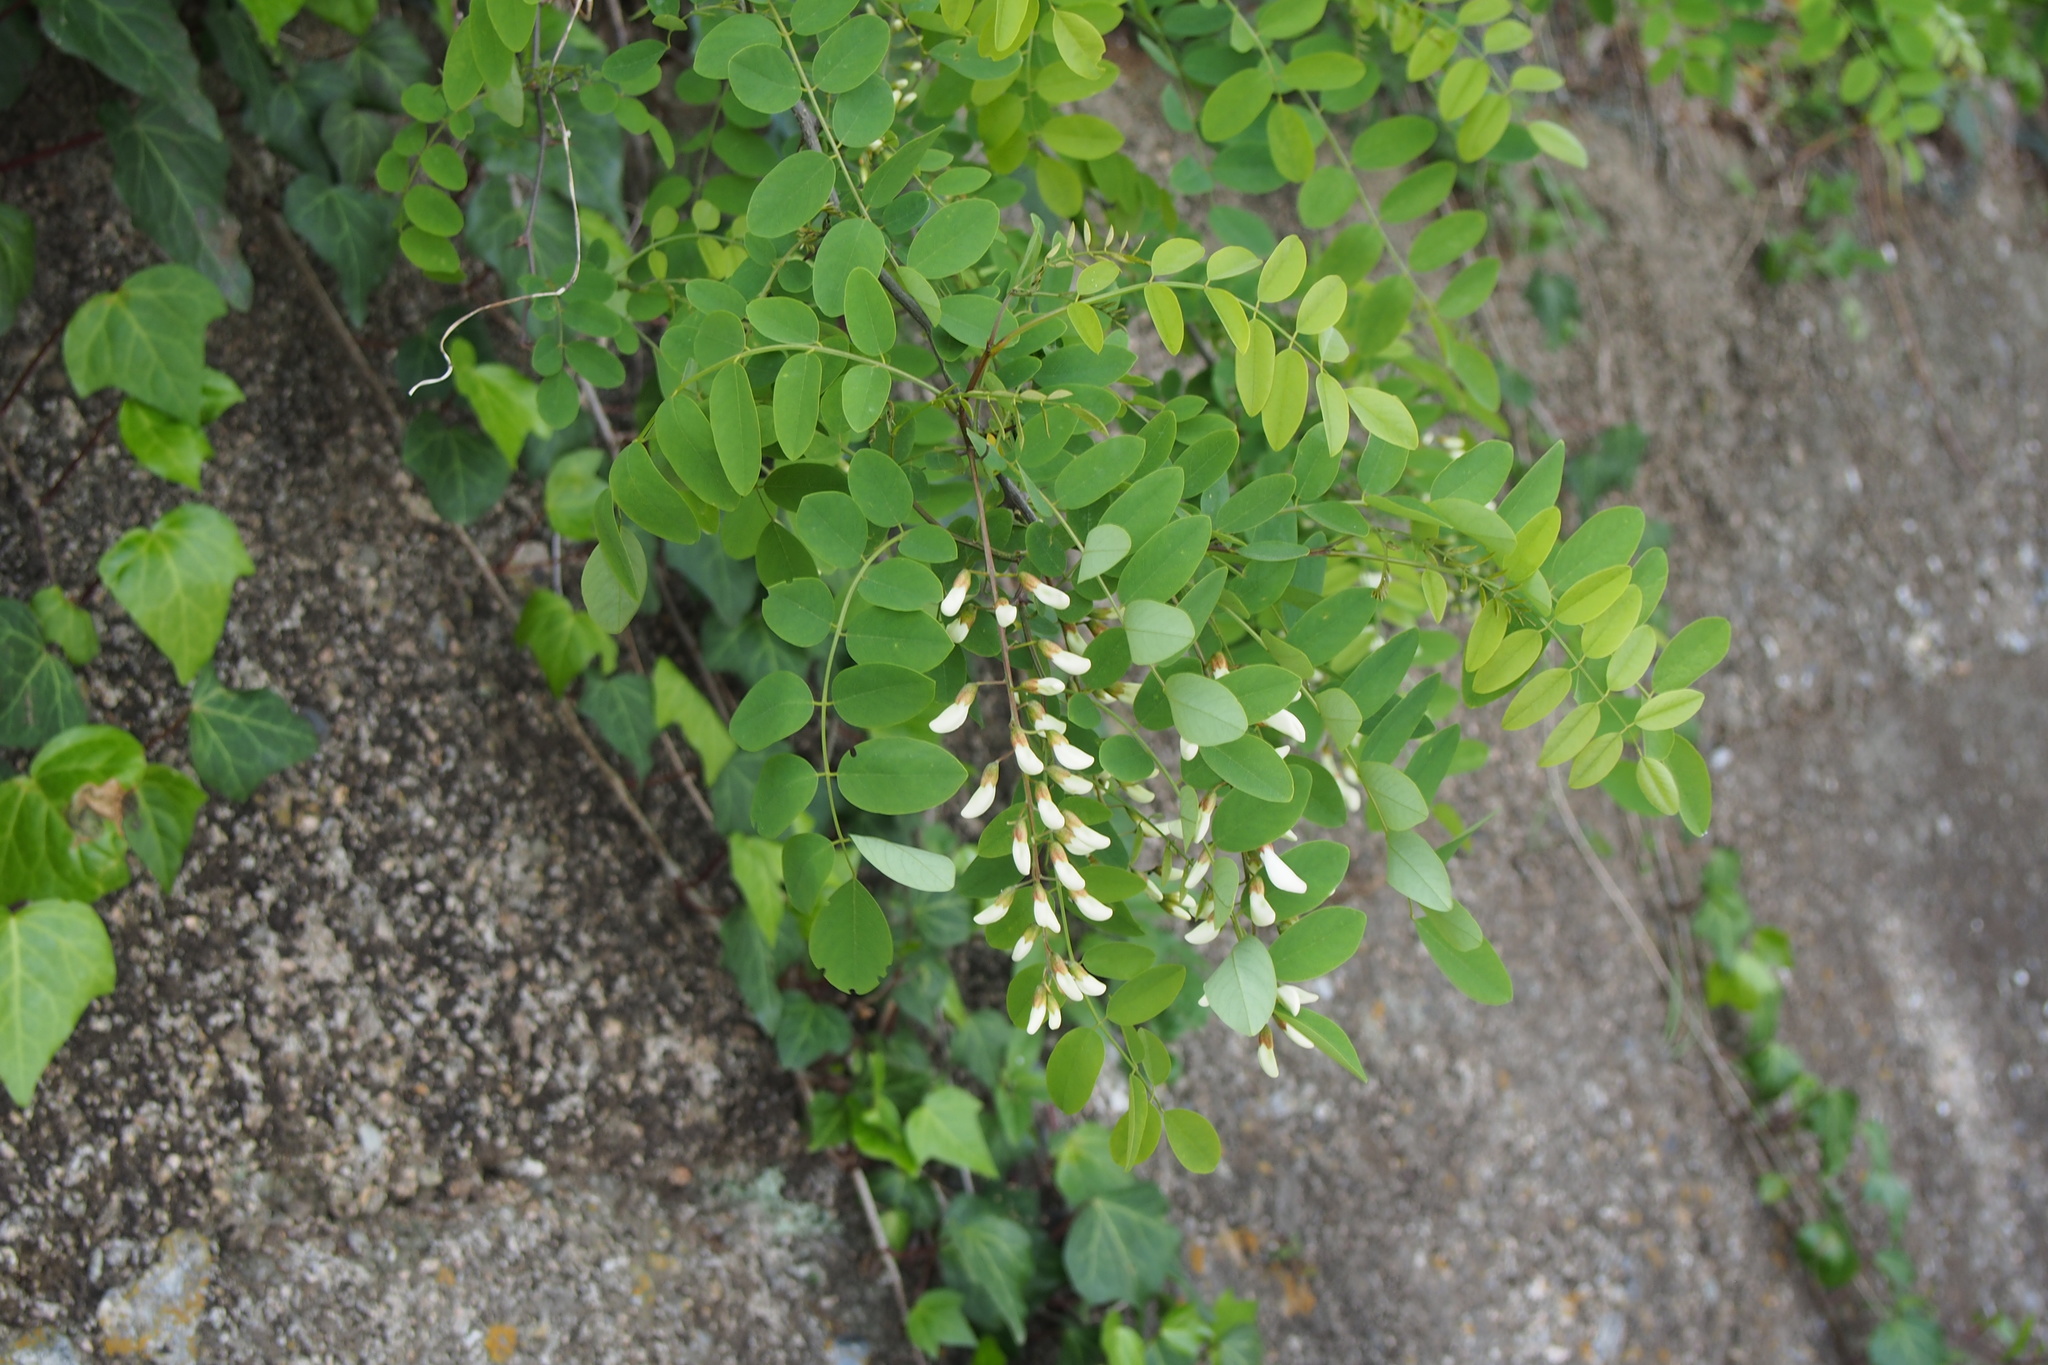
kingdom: Plantae
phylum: Tracheophyta
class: Magnoliopsida
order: Fabales
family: Fabaceae
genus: Robinia
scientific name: Robinia pseudoacacia
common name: Black locust
